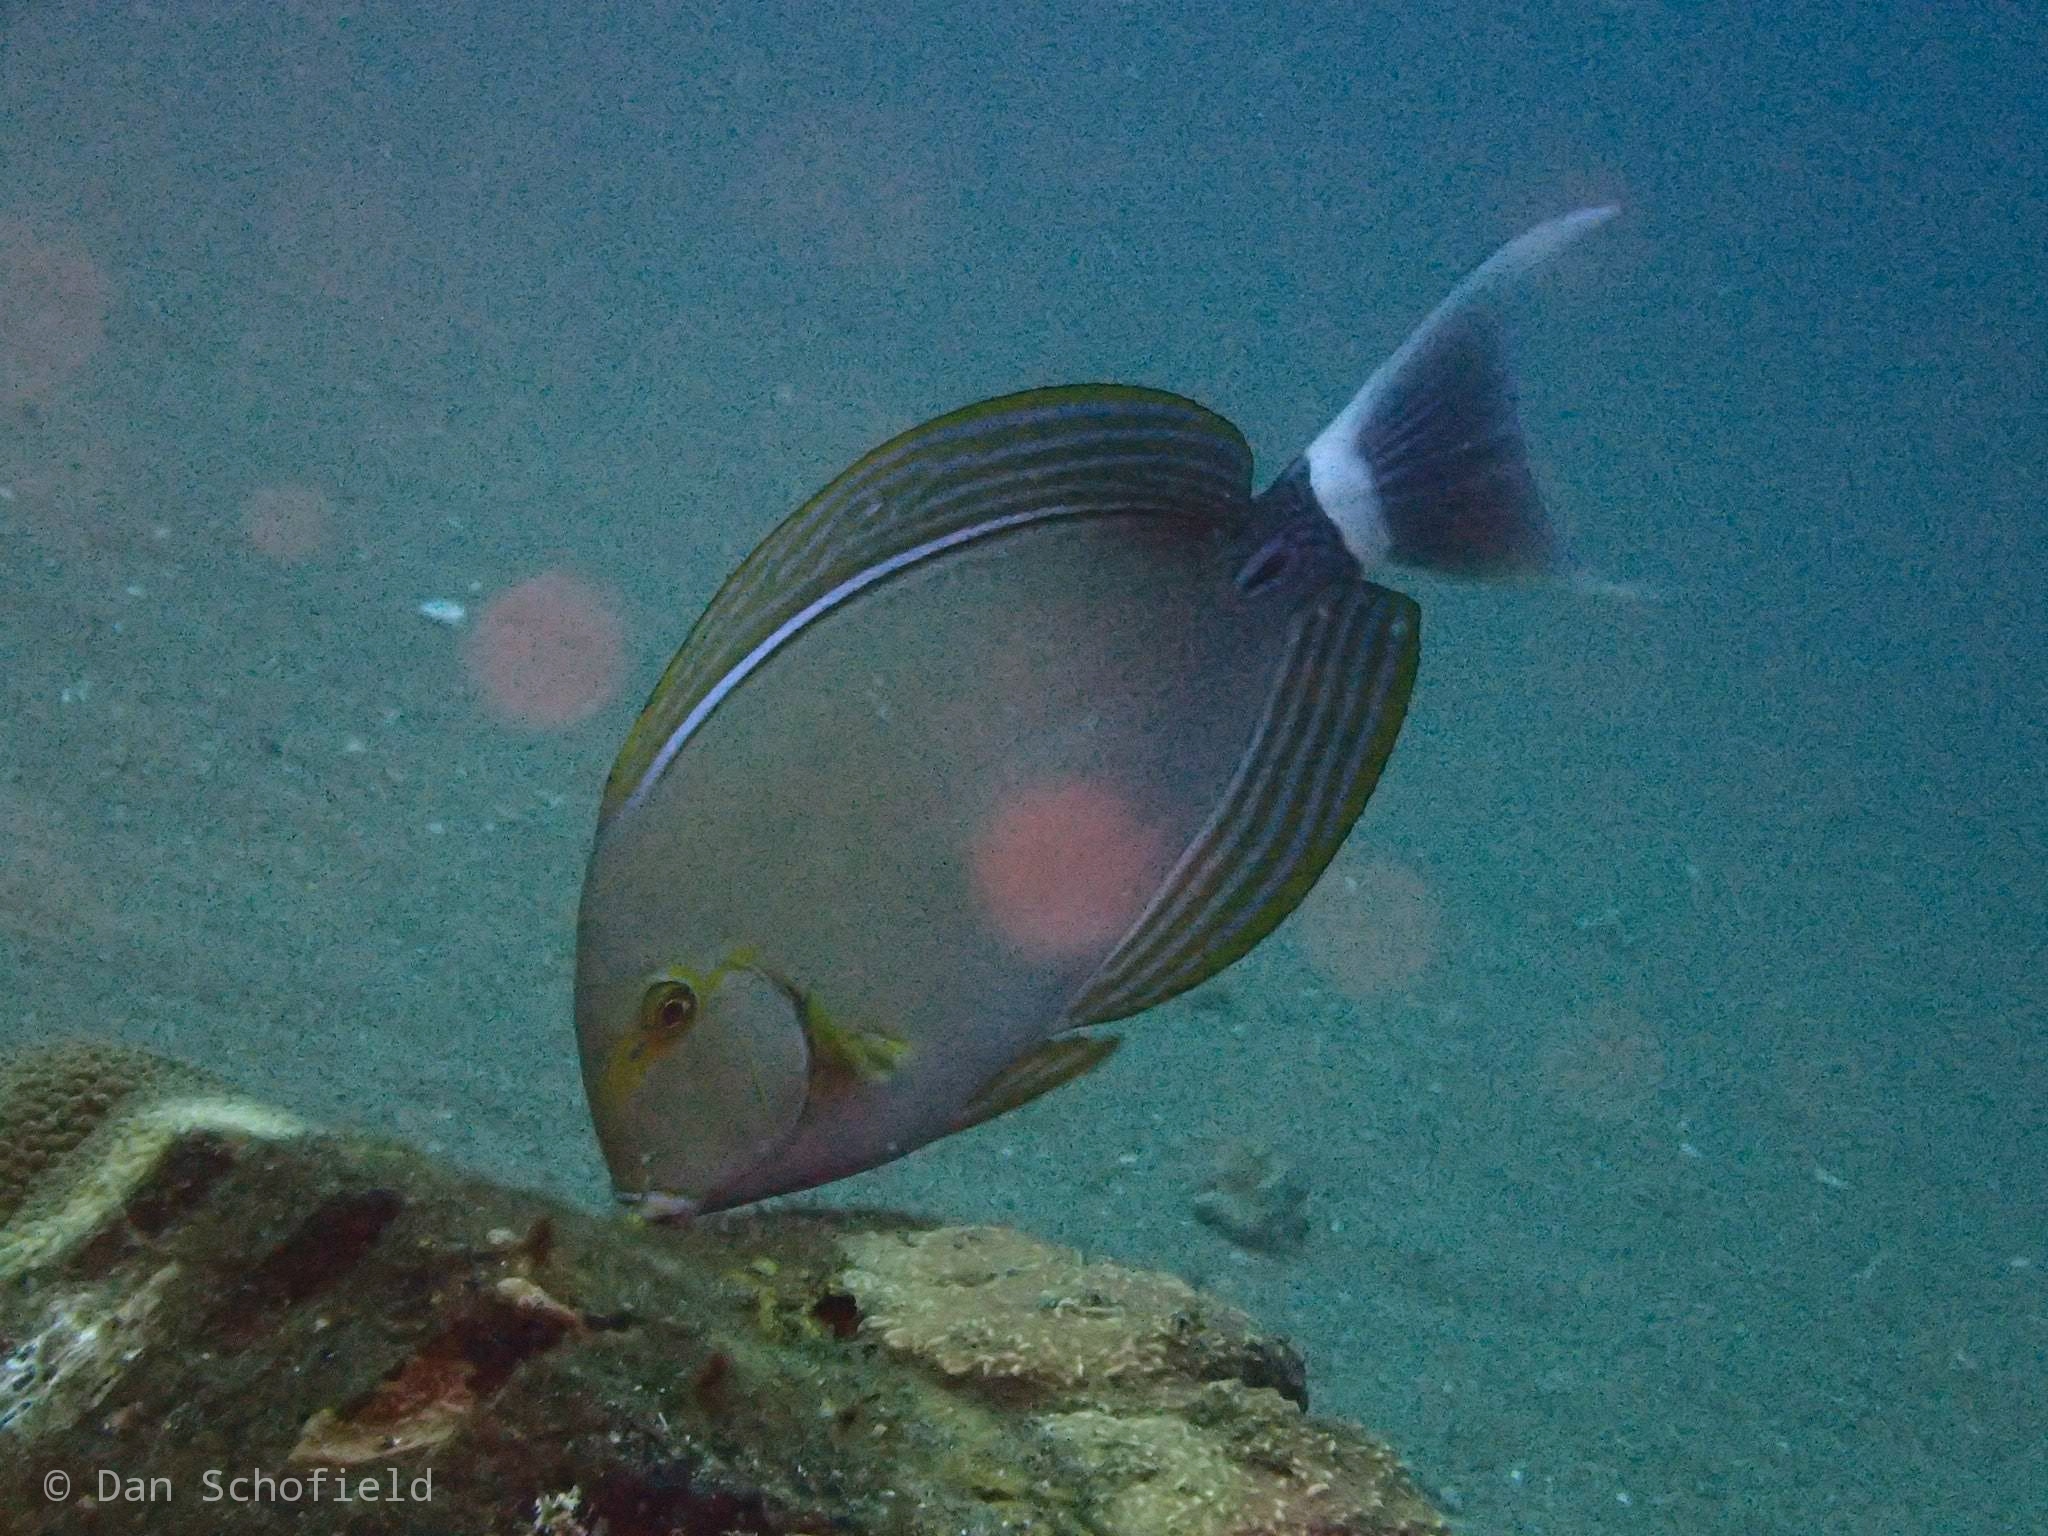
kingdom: Animalia
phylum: Chordata
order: Perciformes
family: Acanthuridae
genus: Acanthurus
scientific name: Acanthurus xanthopterus
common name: Cuvier's surgeonfish
